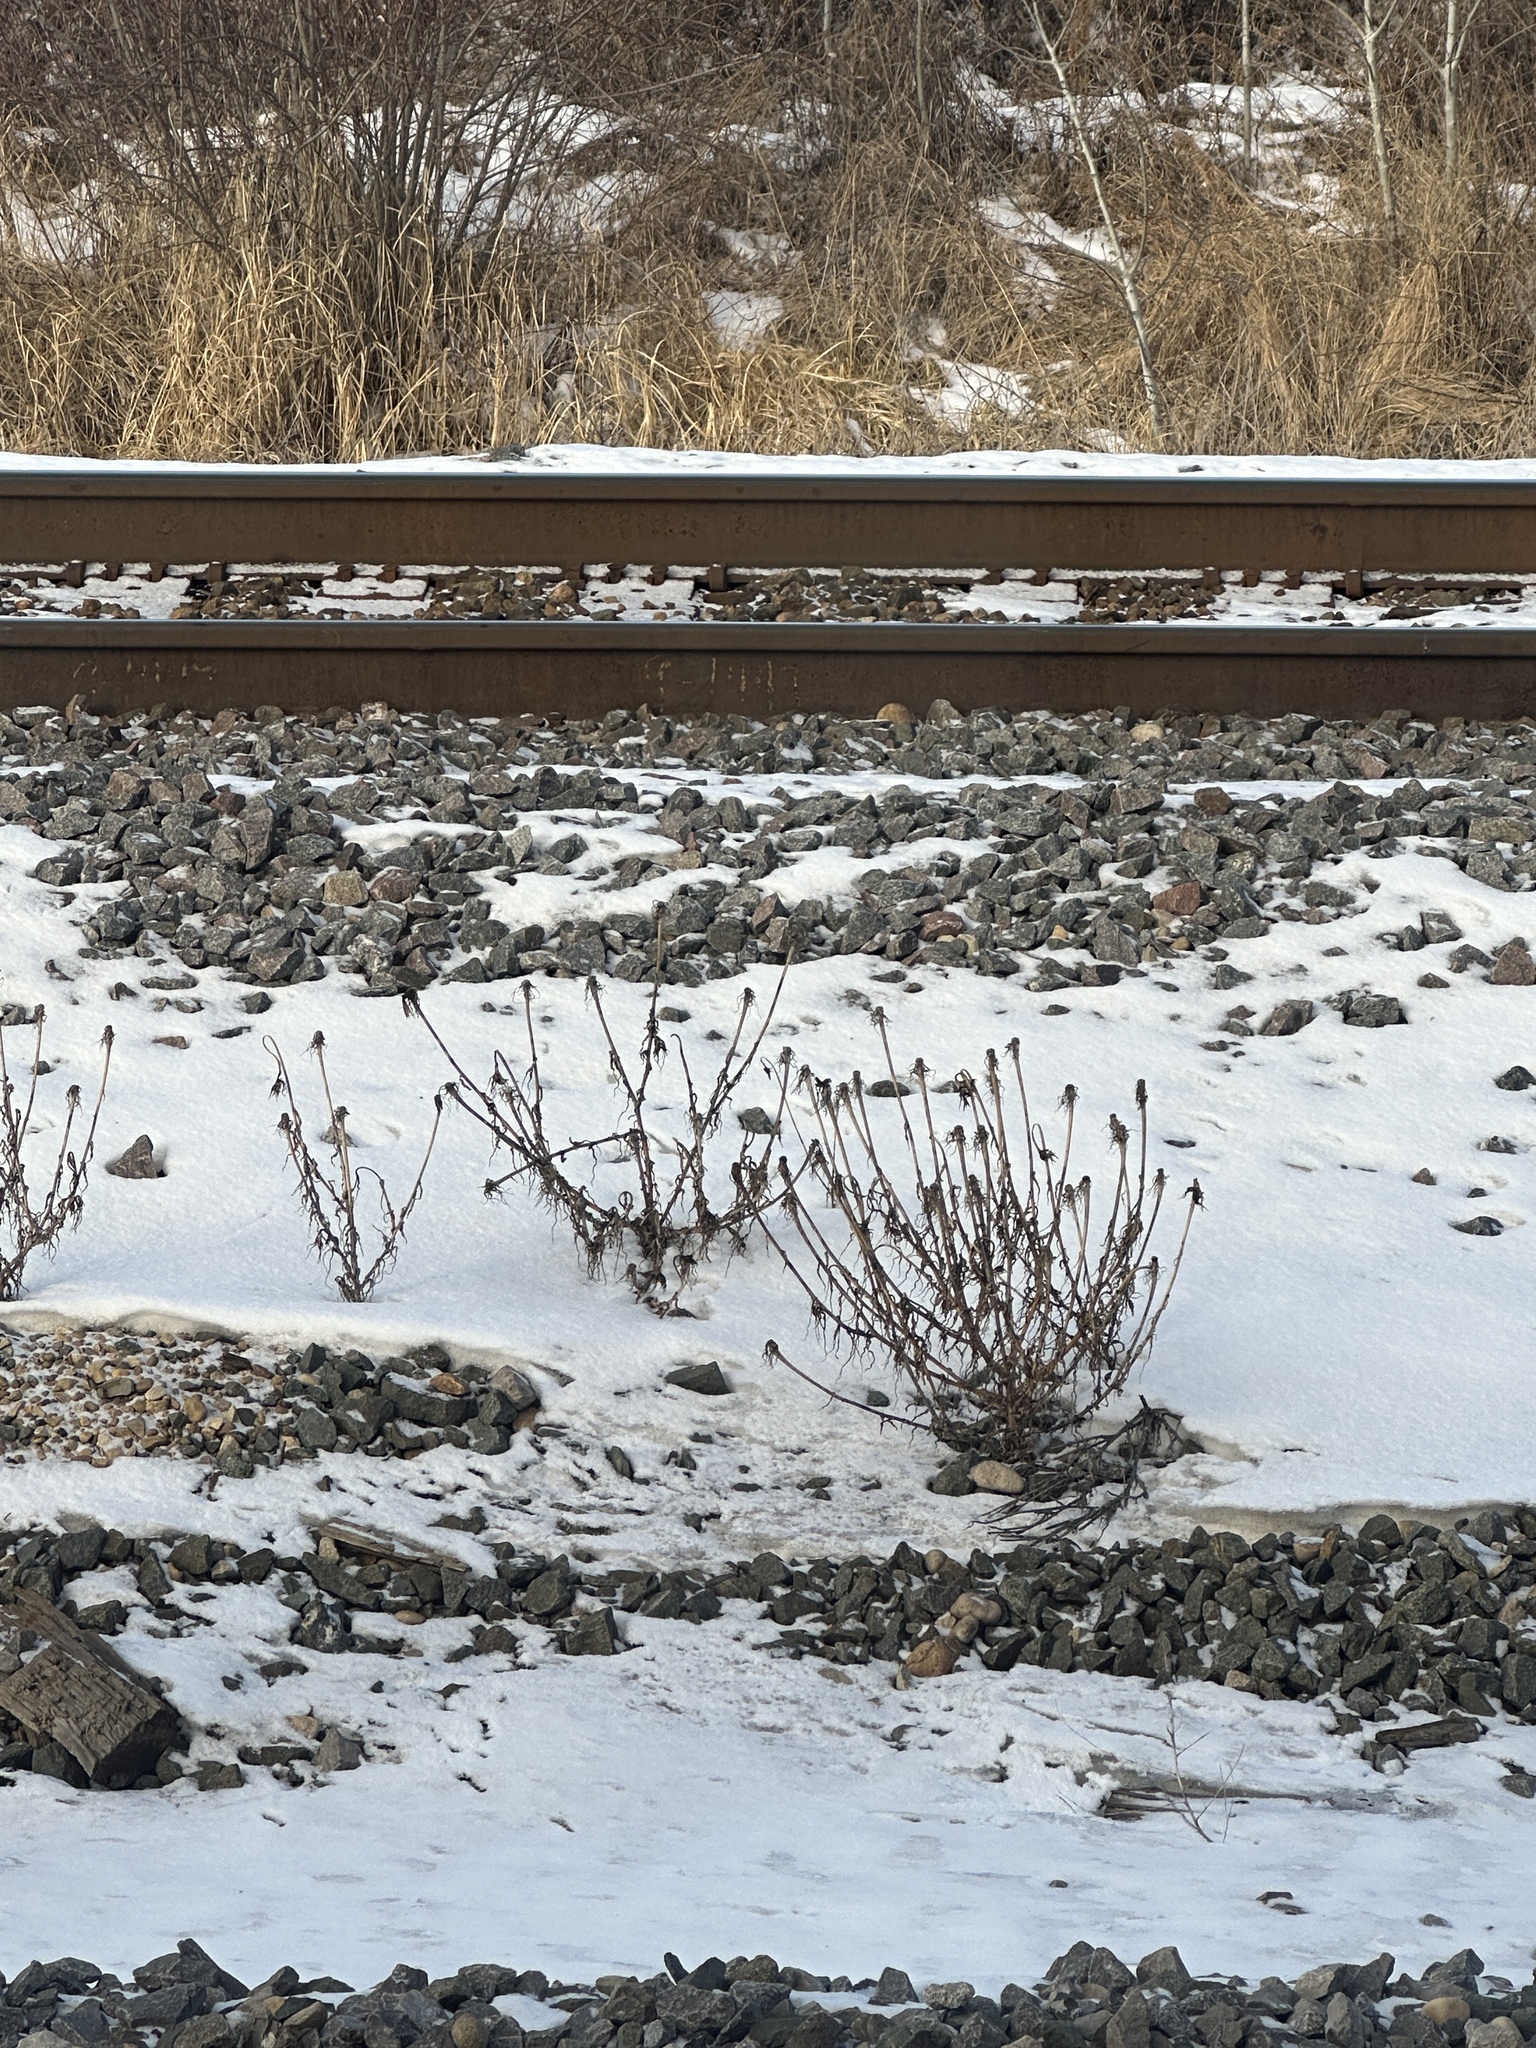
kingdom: Plantae
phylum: Tracheophyta
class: Magnoliopsida
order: Asterales
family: Asteraceae
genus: Tragopogon
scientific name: Tragopogon dubius
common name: Yellow salsify
